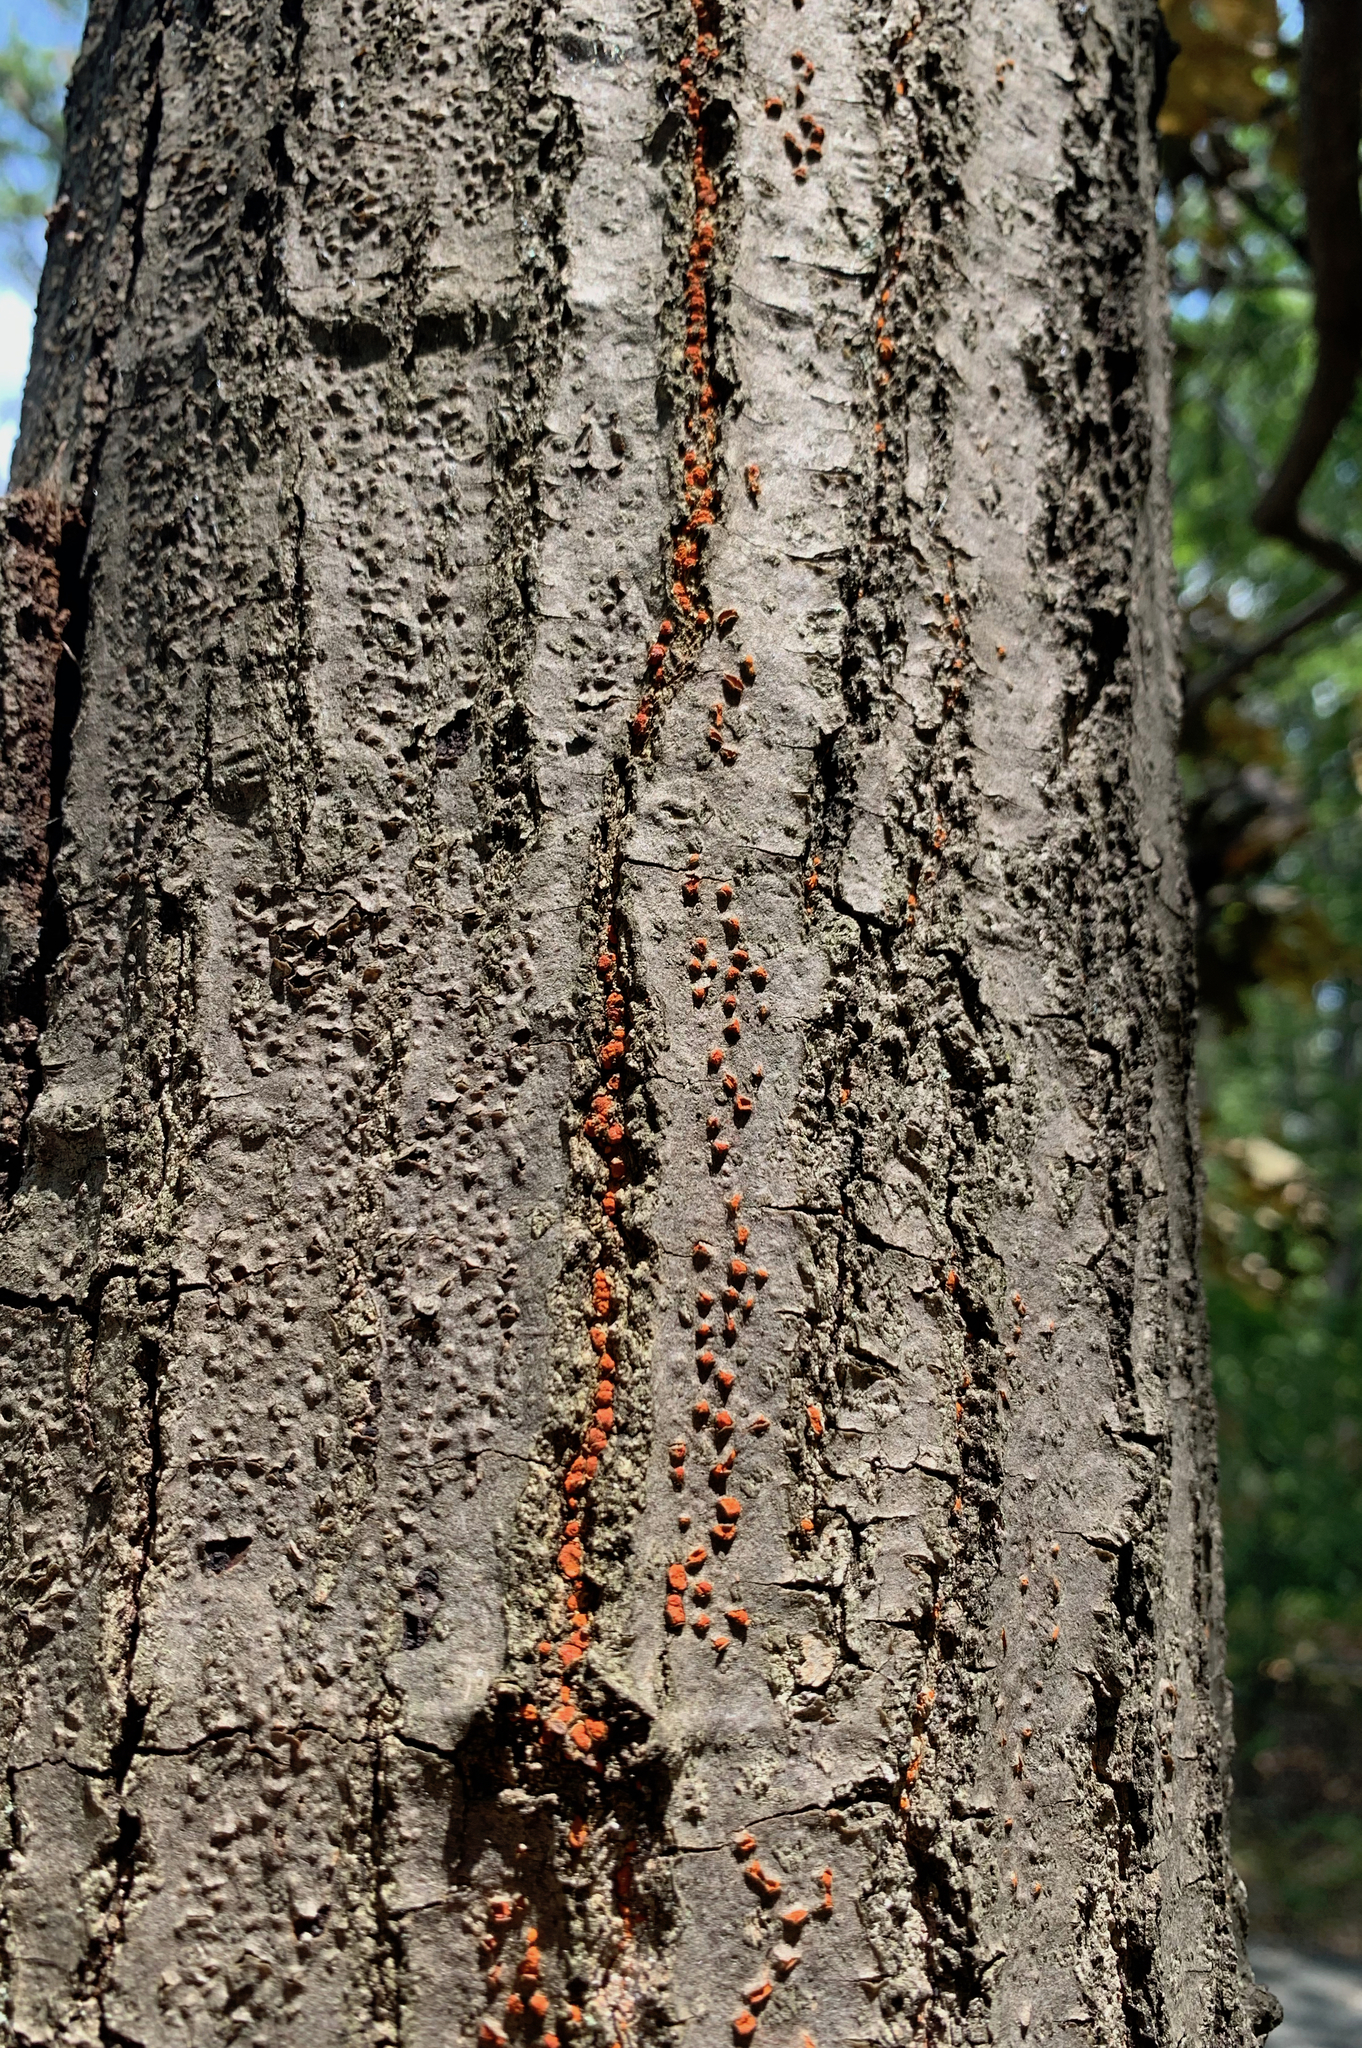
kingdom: Fungi
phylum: Ascomycota
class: Sordariomycetes
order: Diaporthales
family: Cryphonectriaceae
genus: Amphilogia
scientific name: Amphilogia gyrosa
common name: Orange hobnail canker
